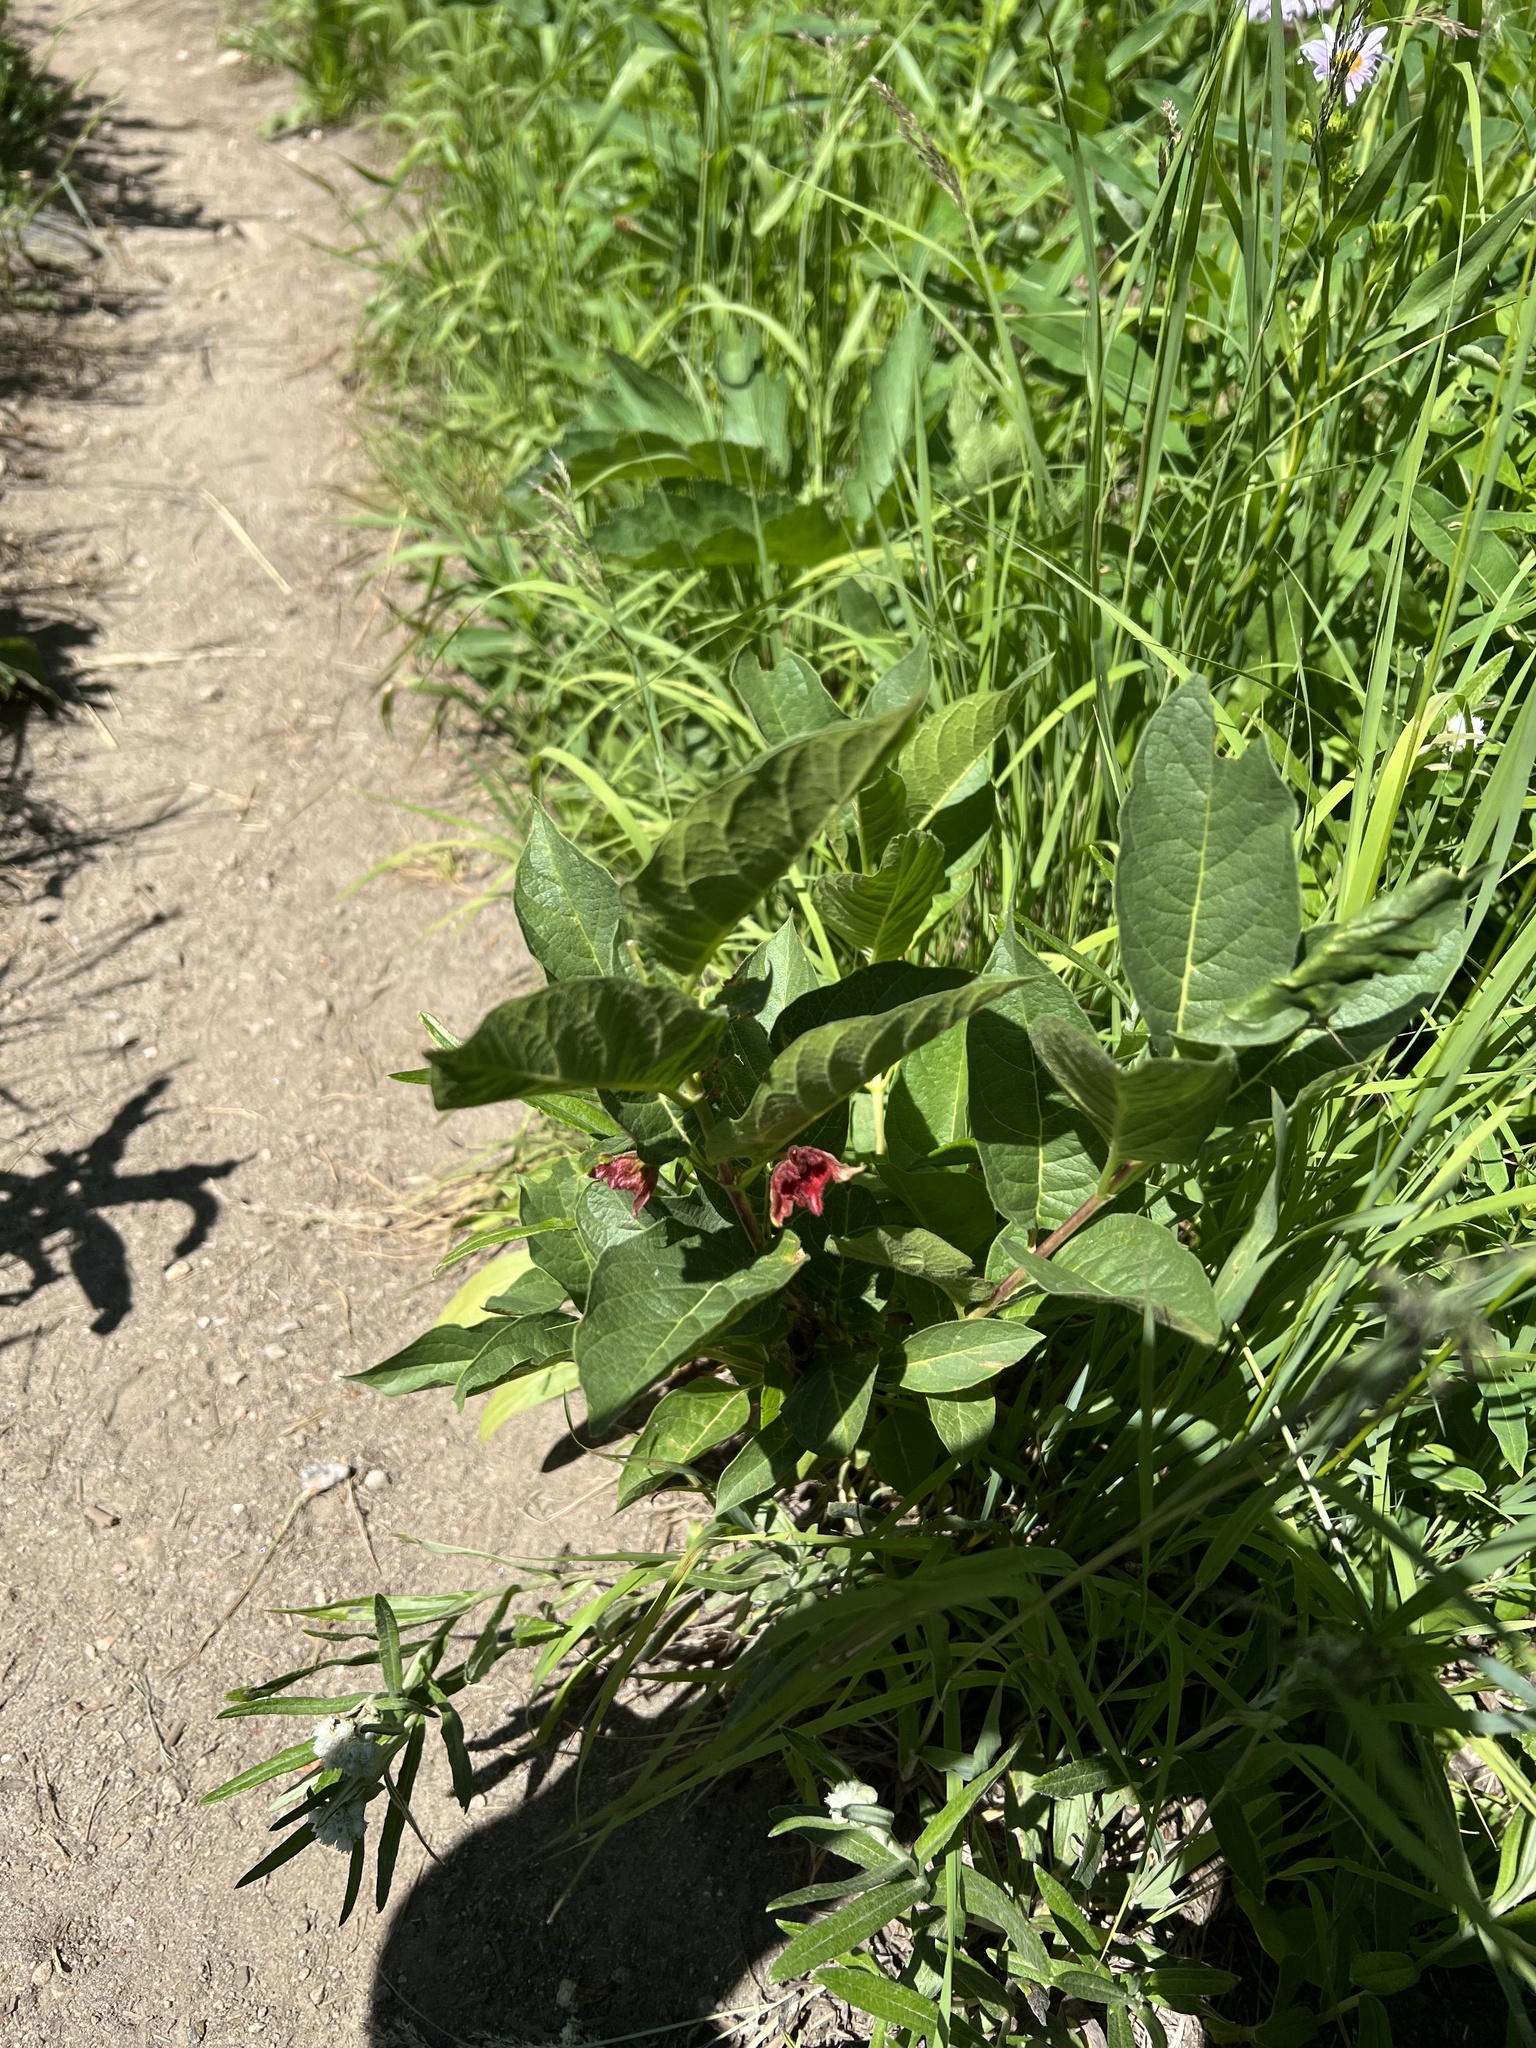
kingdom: Plantae
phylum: Tracheophyta
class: Magnoliopsida
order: Dipsacales
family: Caprifoliaceae
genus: Lonicera
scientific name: Lonicera involucrata
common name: Californian honeysuckle
